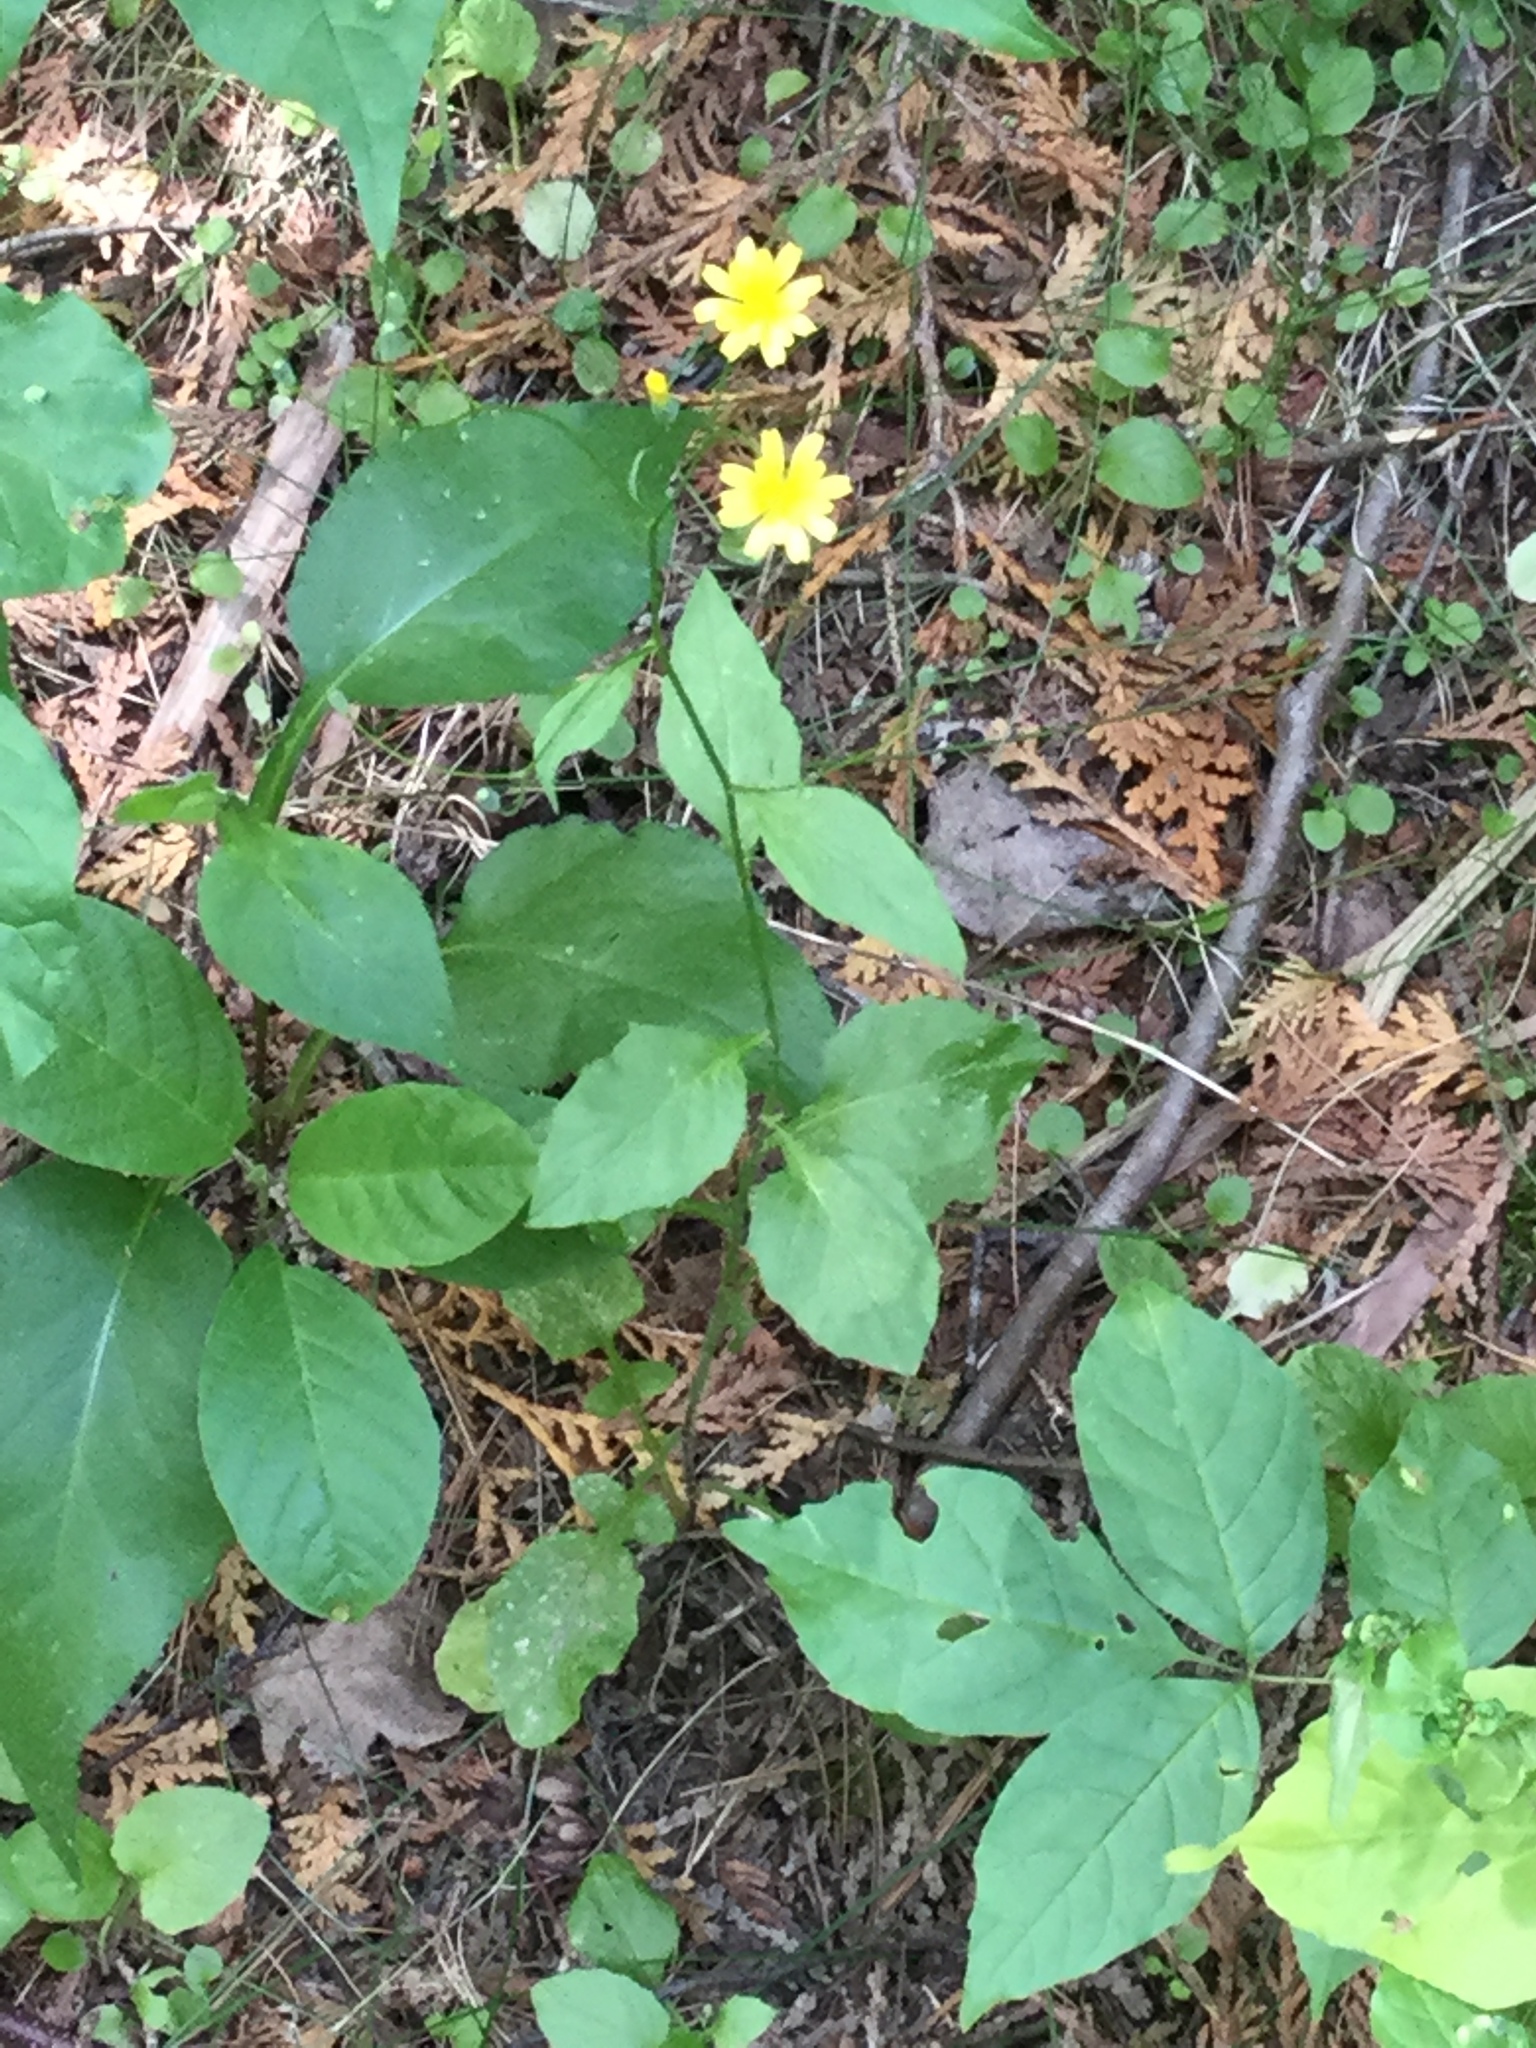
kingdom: Plantae
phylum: Tracheophyta
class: Magnoliopsida
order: Asterales
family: Asteraceae
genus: Lapsana
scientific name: Lapsana communis
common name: Nipplewort
